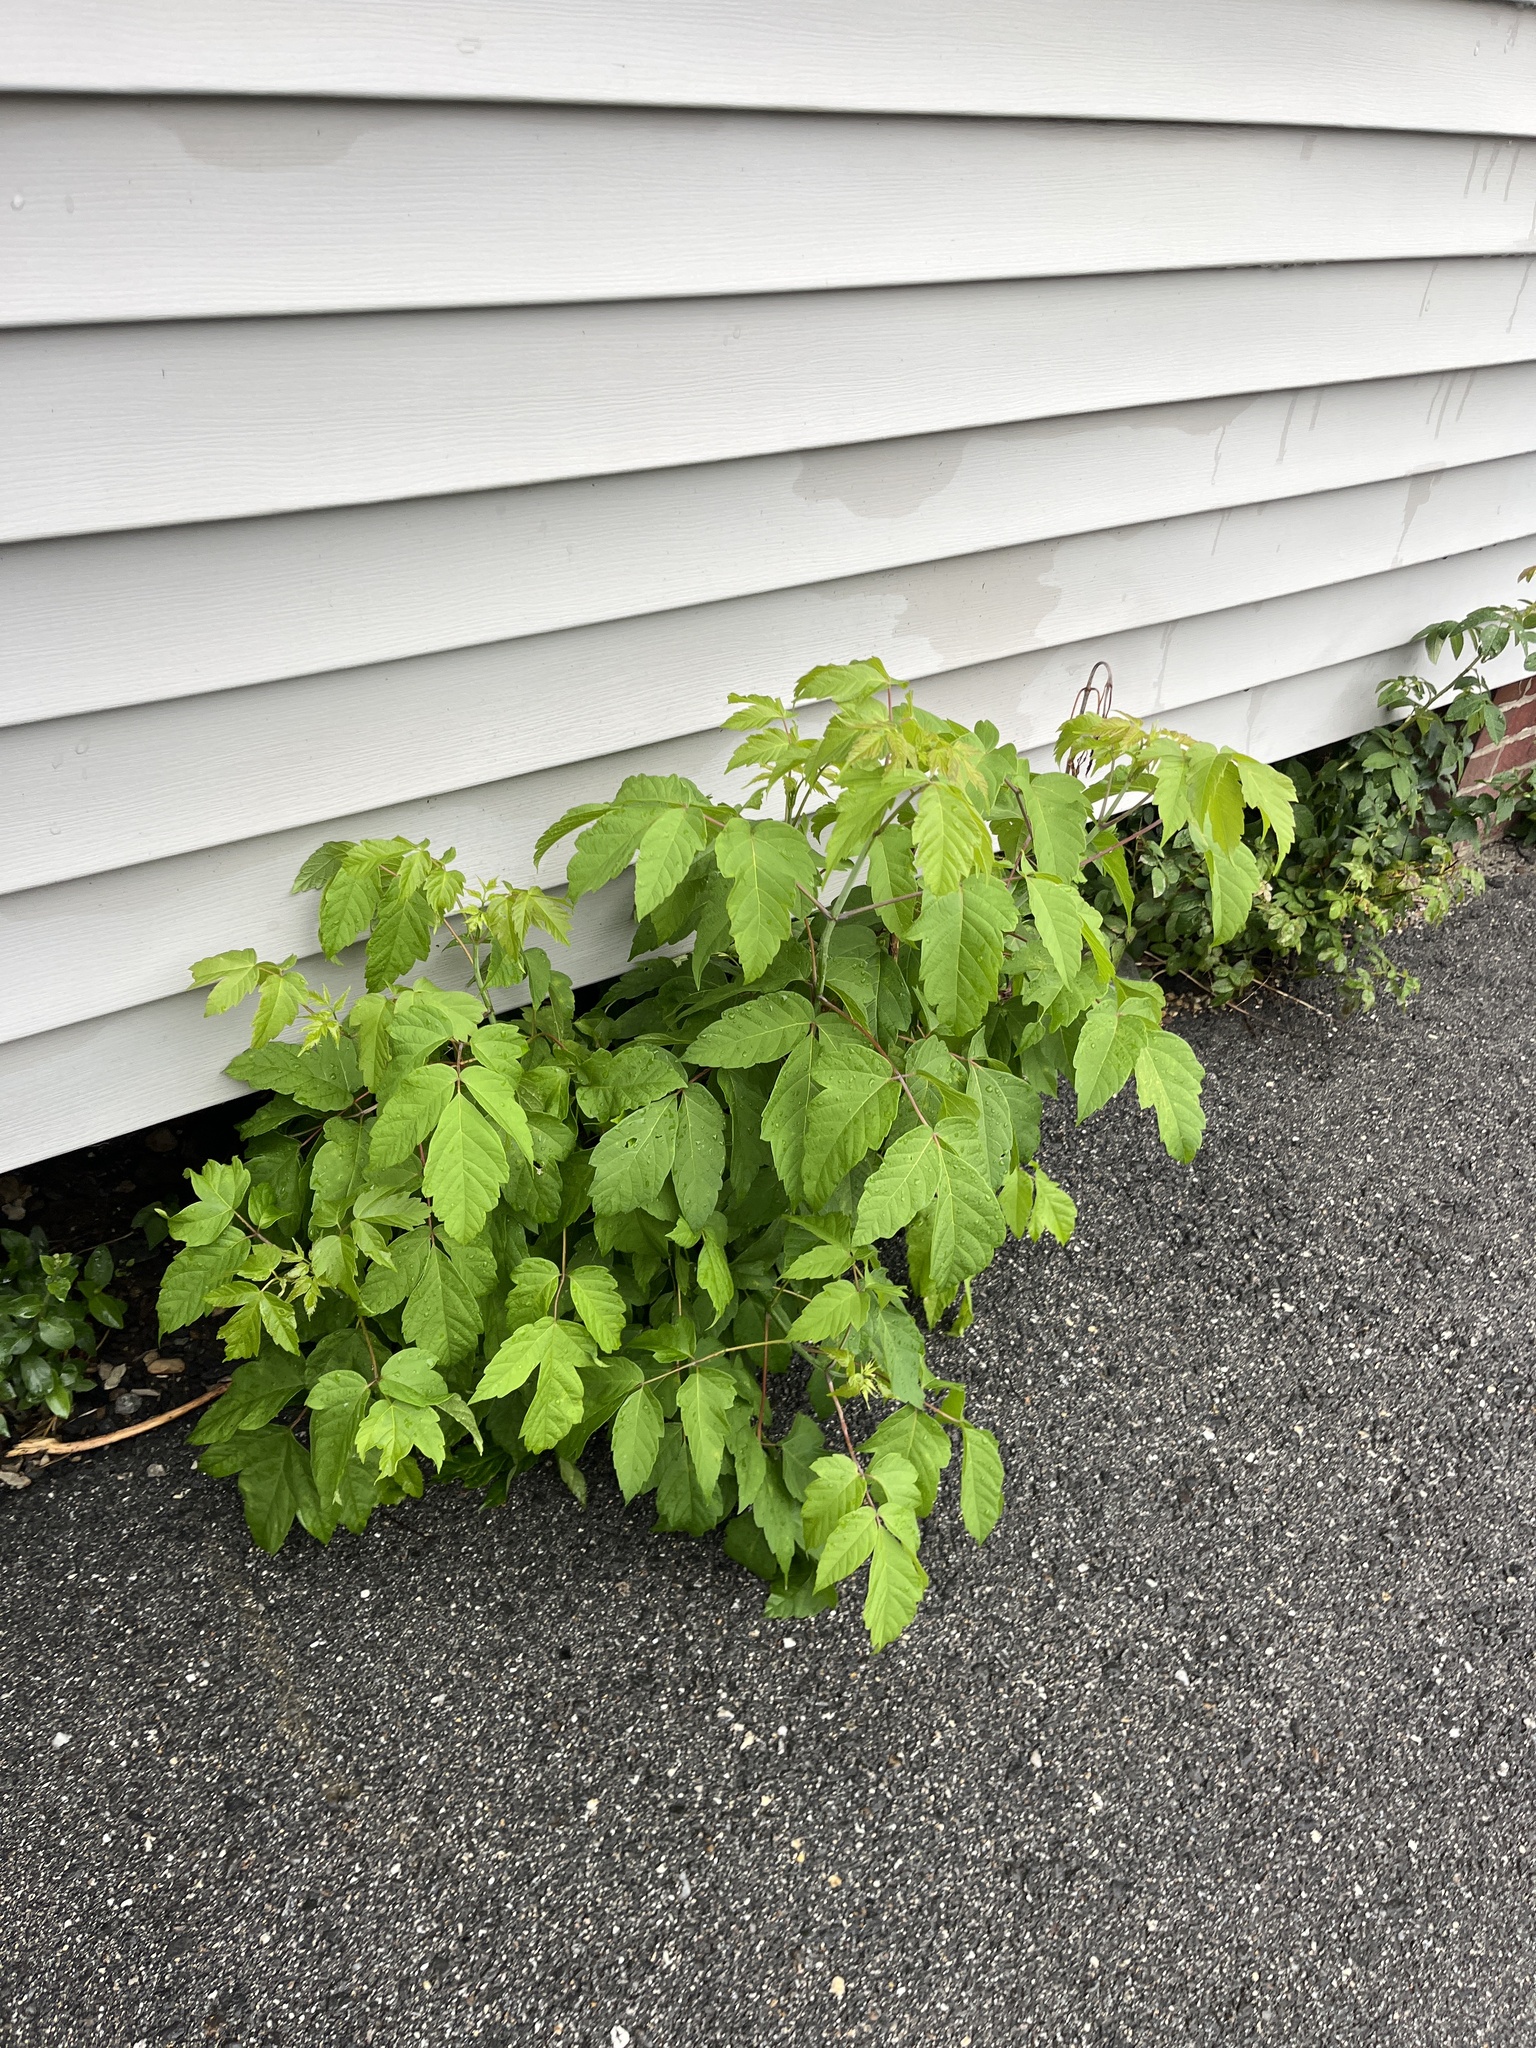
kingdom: Plantae
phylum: Tracheophyta
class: Magnoliopsida
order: Sapindales
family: Sapindaceae
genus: Acer
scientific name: Acer negundo
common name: Ashleaf maple
